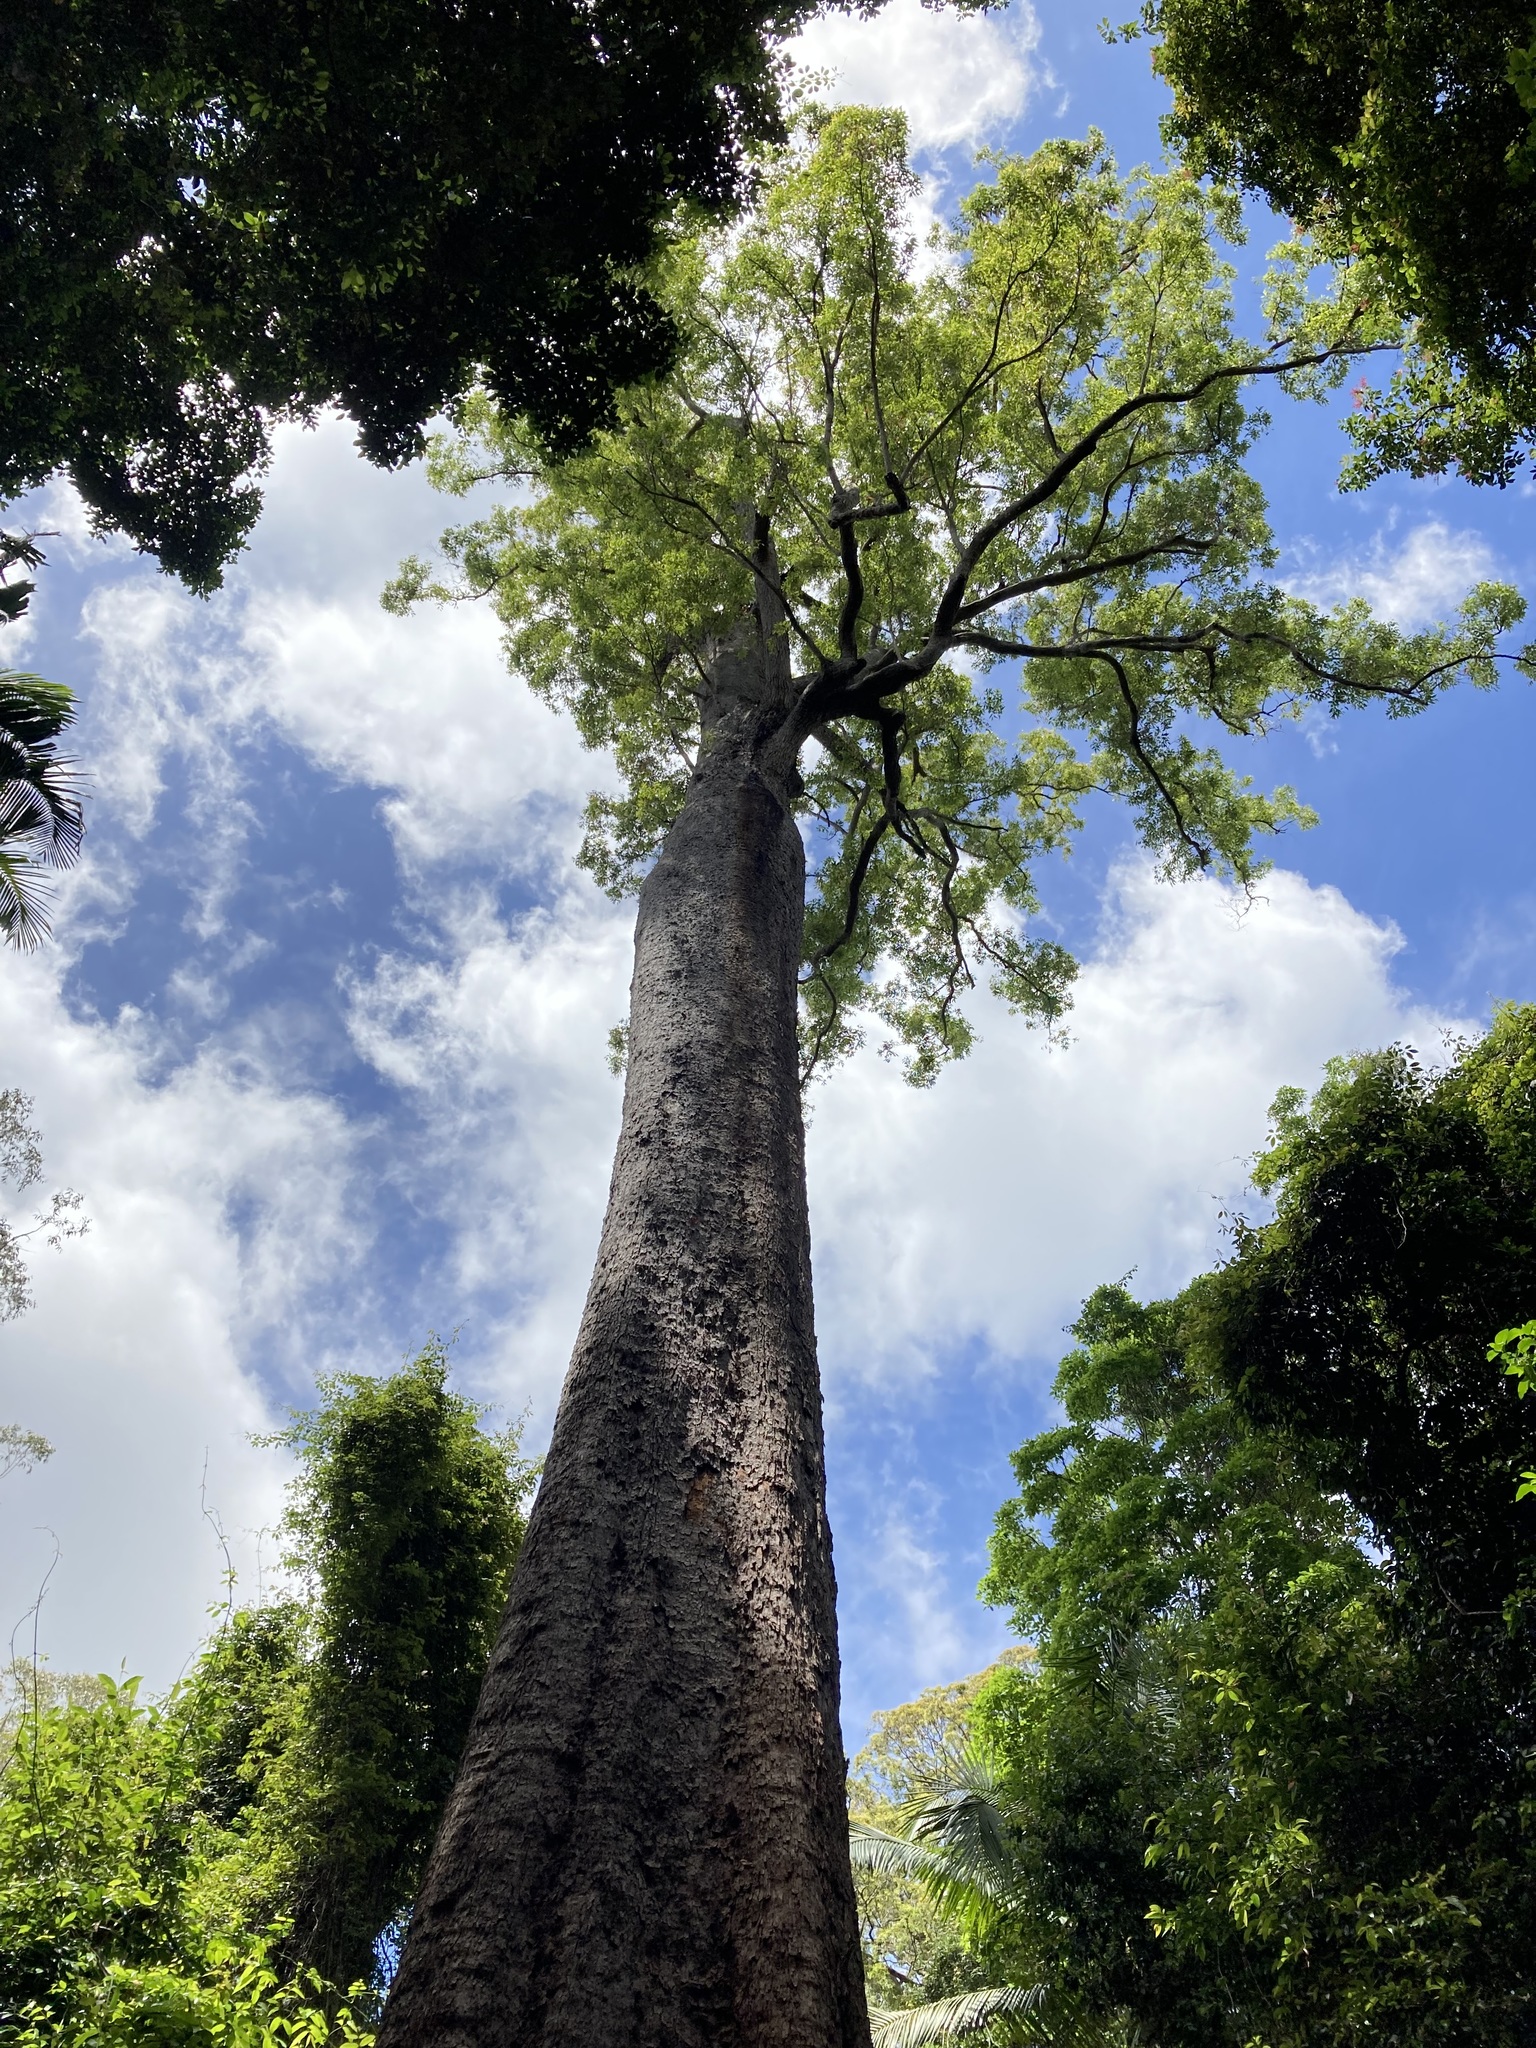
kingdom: Plantae
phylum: Tracheophyta
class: Magnoliopsida
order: Myrtales
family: Myrtaceae
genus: Corymbia
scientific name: Corymbia gummifera
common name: Red bloodwood
